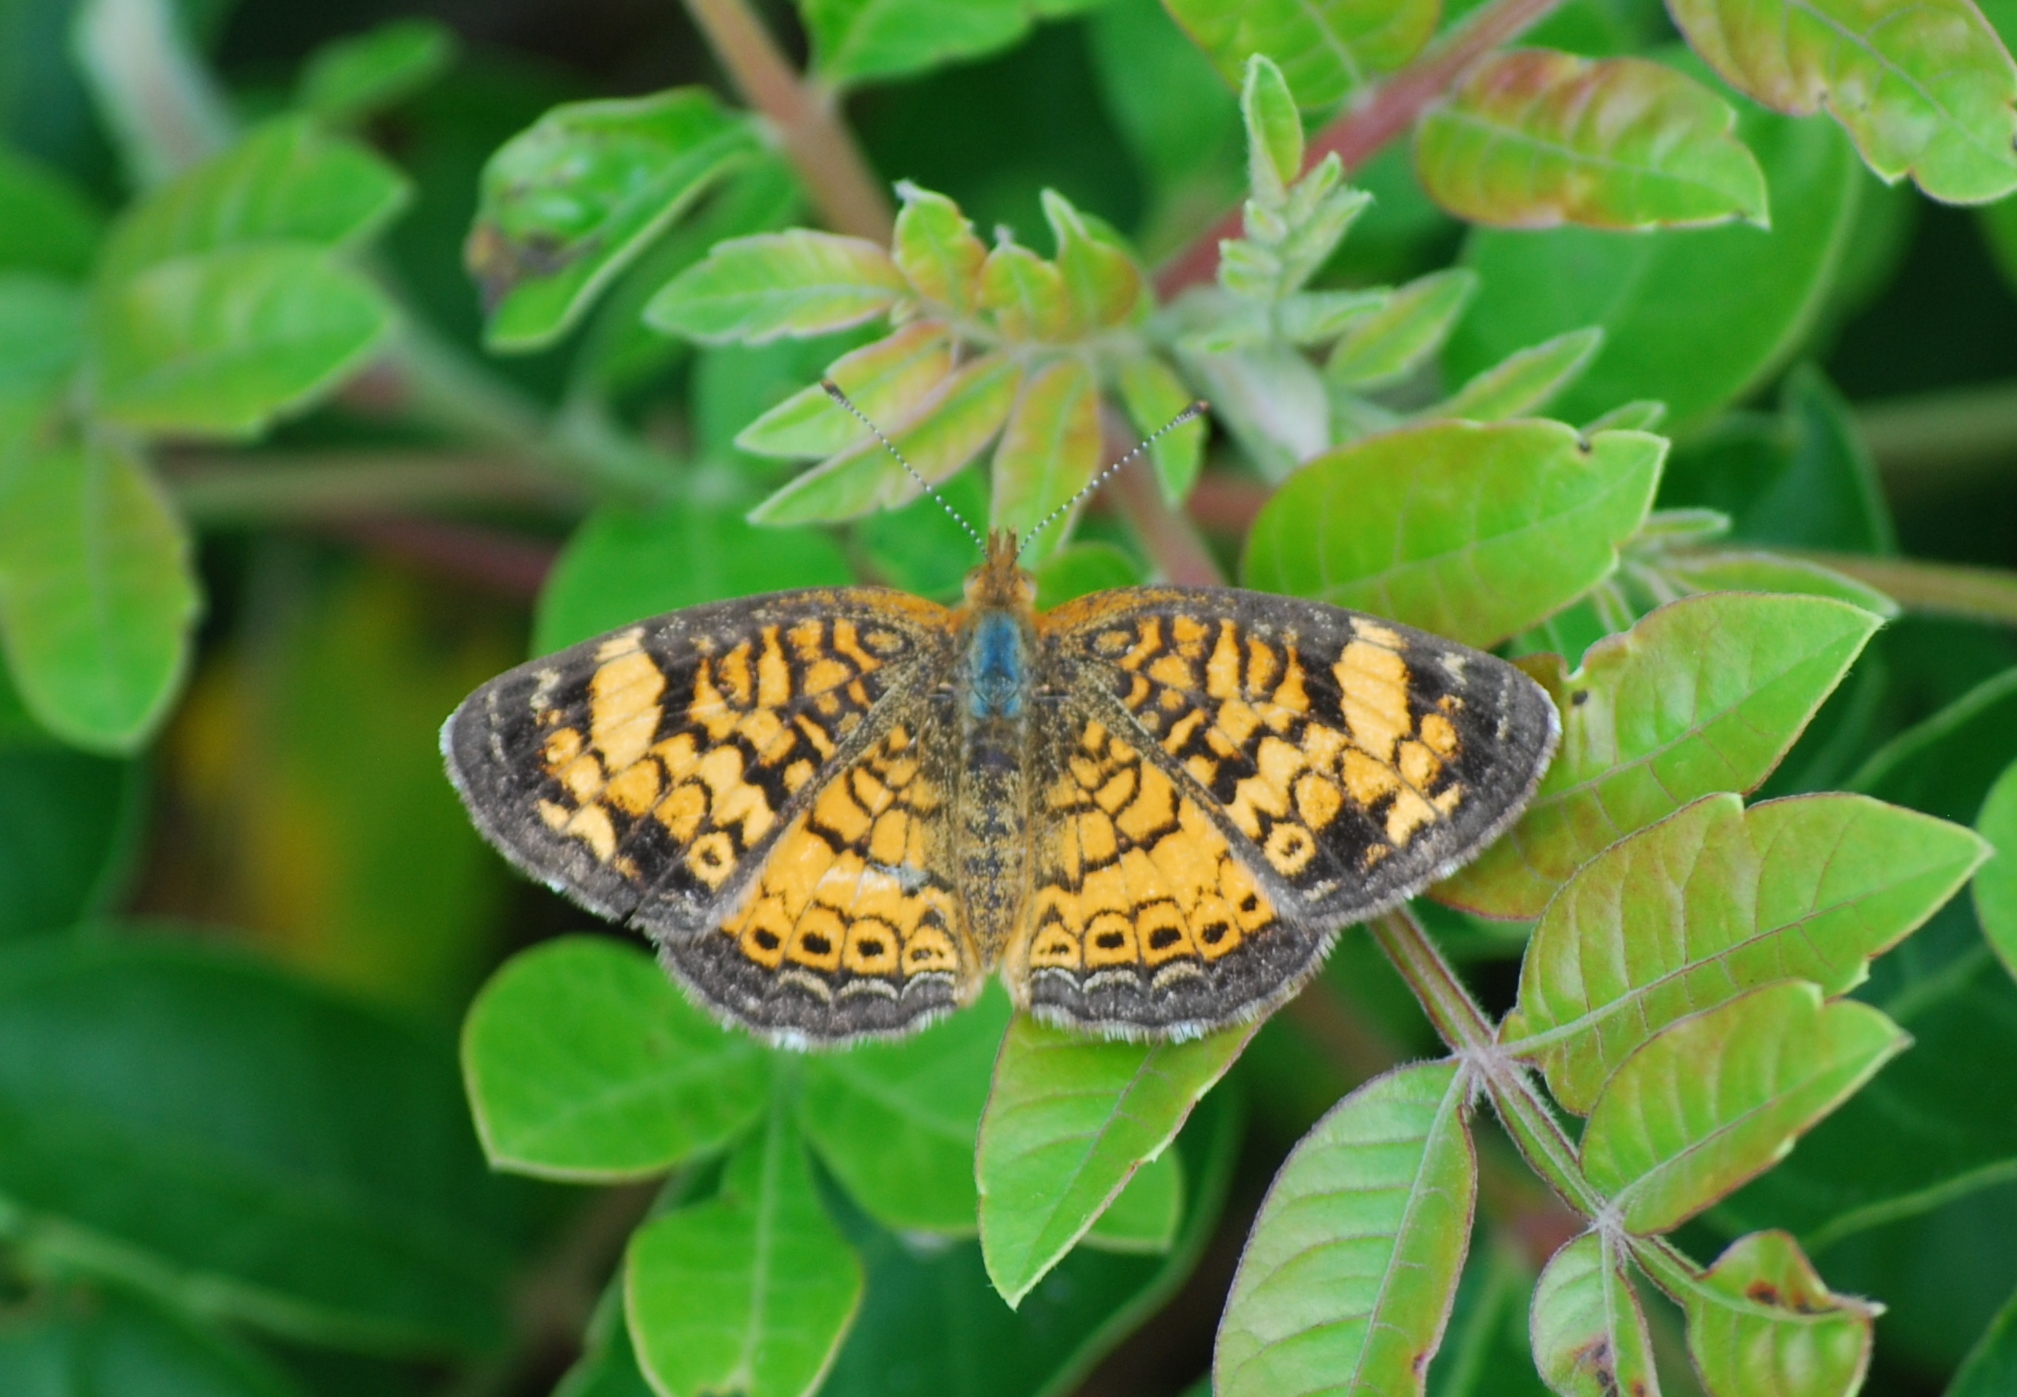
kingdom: Animalia
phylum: Arthropoda
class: Insecta
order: Lepidoptera
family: Nymphalidae
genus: Phyciodes
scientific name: Phyciodes tharos
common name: Pearl crescent
